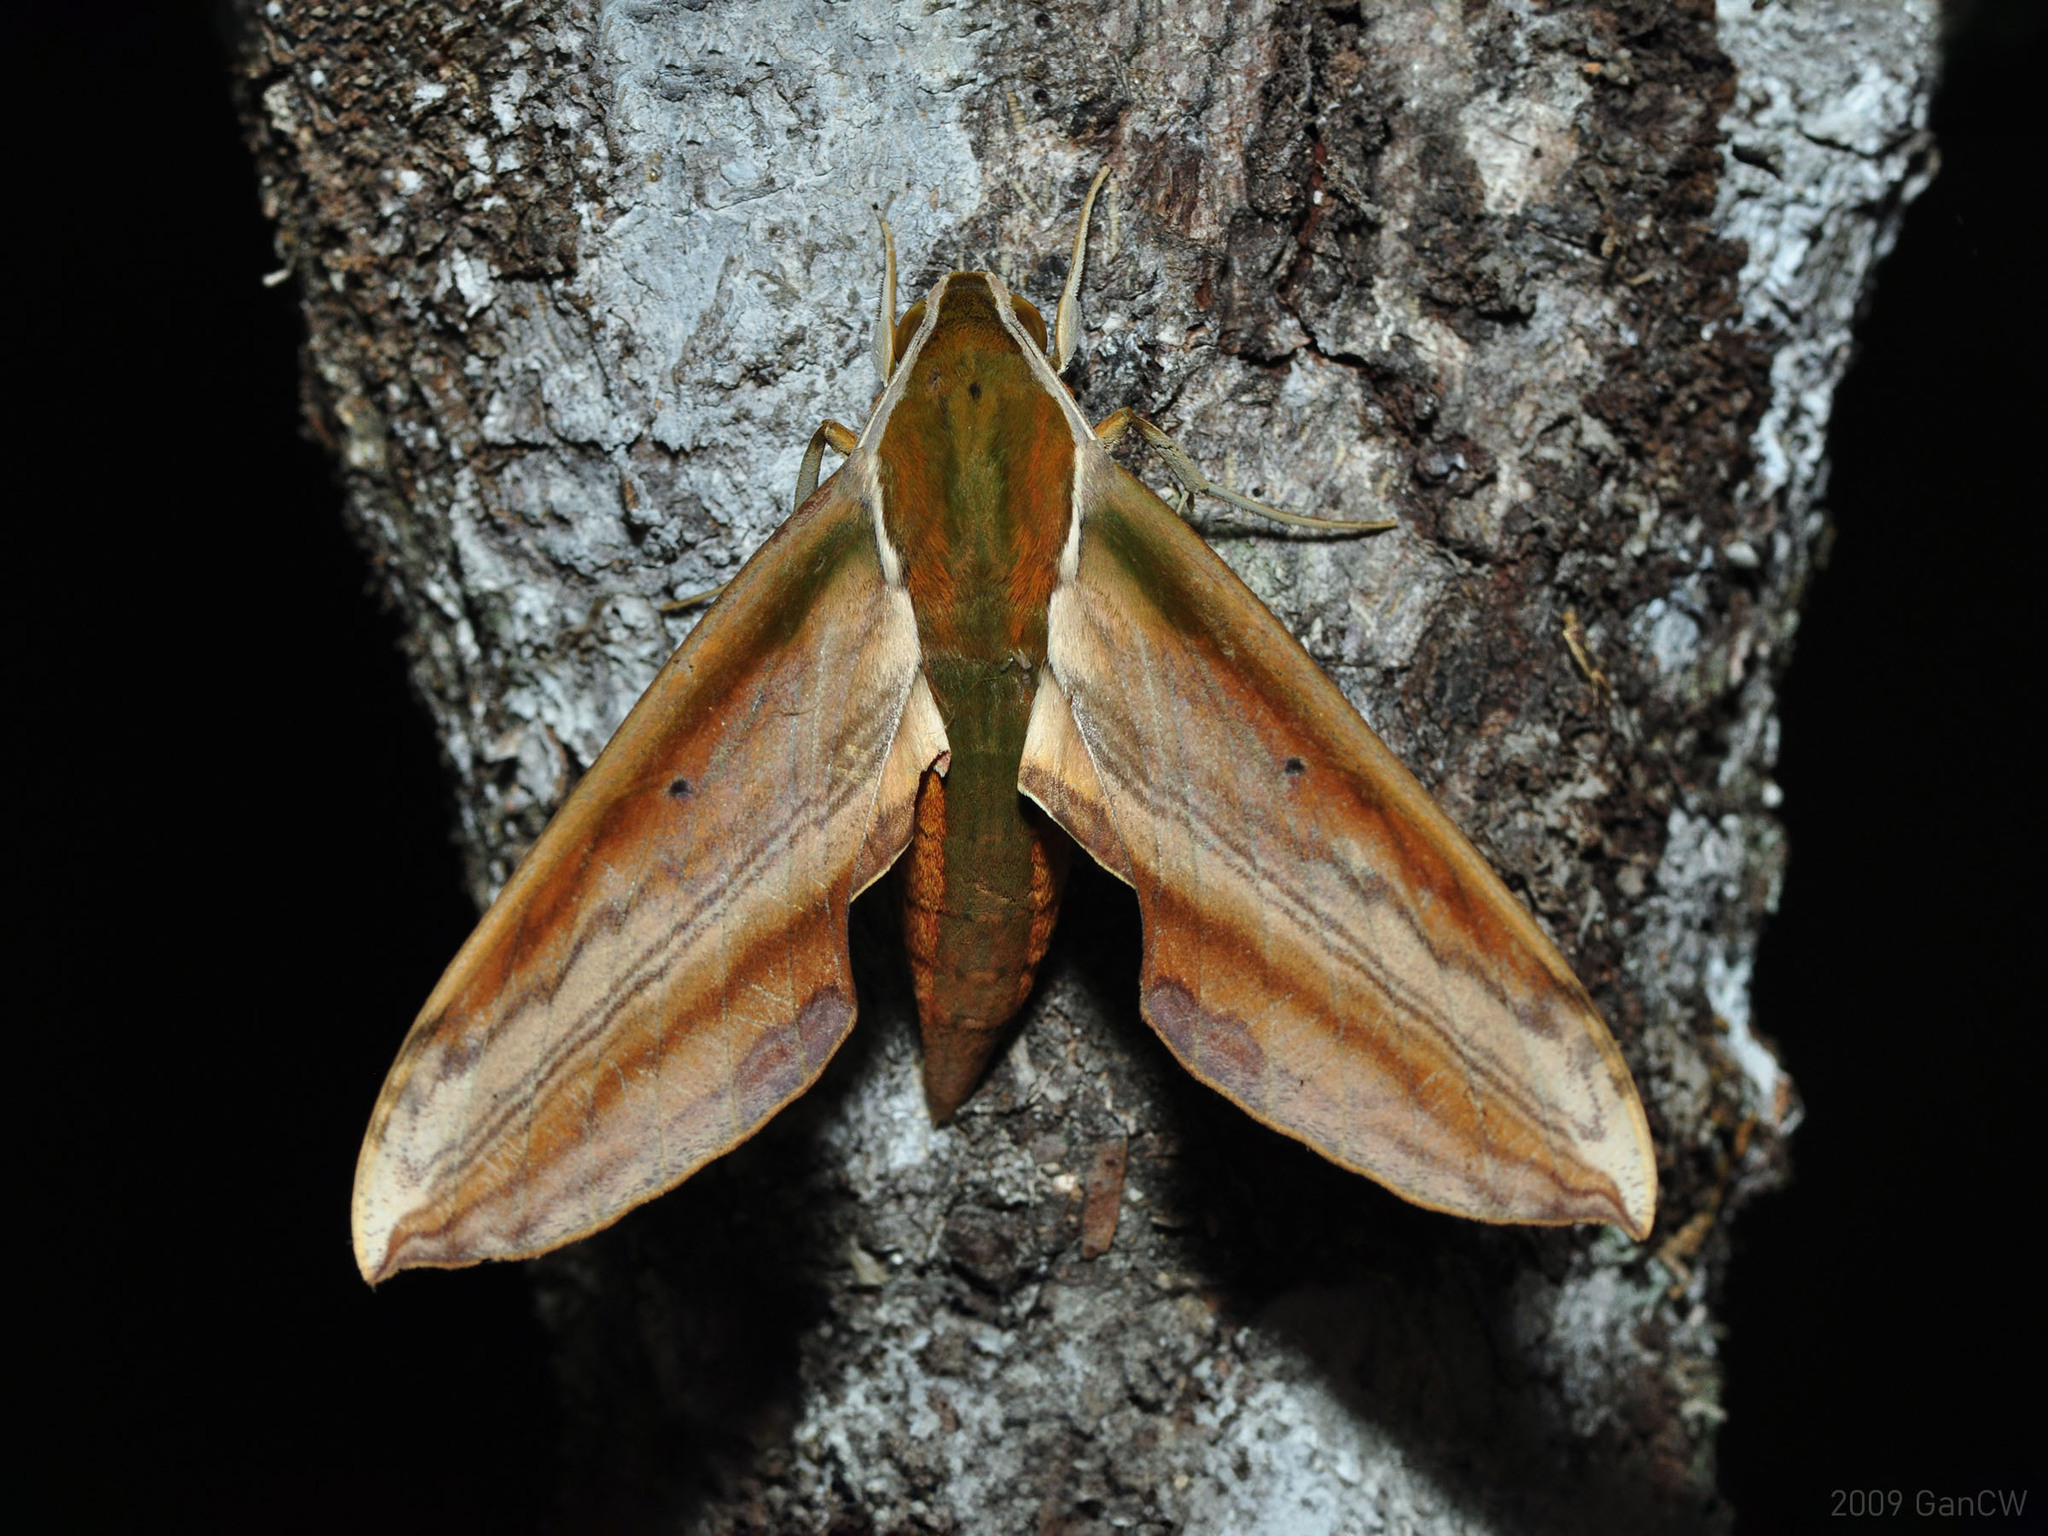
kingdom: Animalia
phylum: Arthropoda
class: Insecta
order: Lepidoptera
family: Sphingidae
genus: Theretra
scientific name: Theretra nessus
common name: Yam hawk moth
